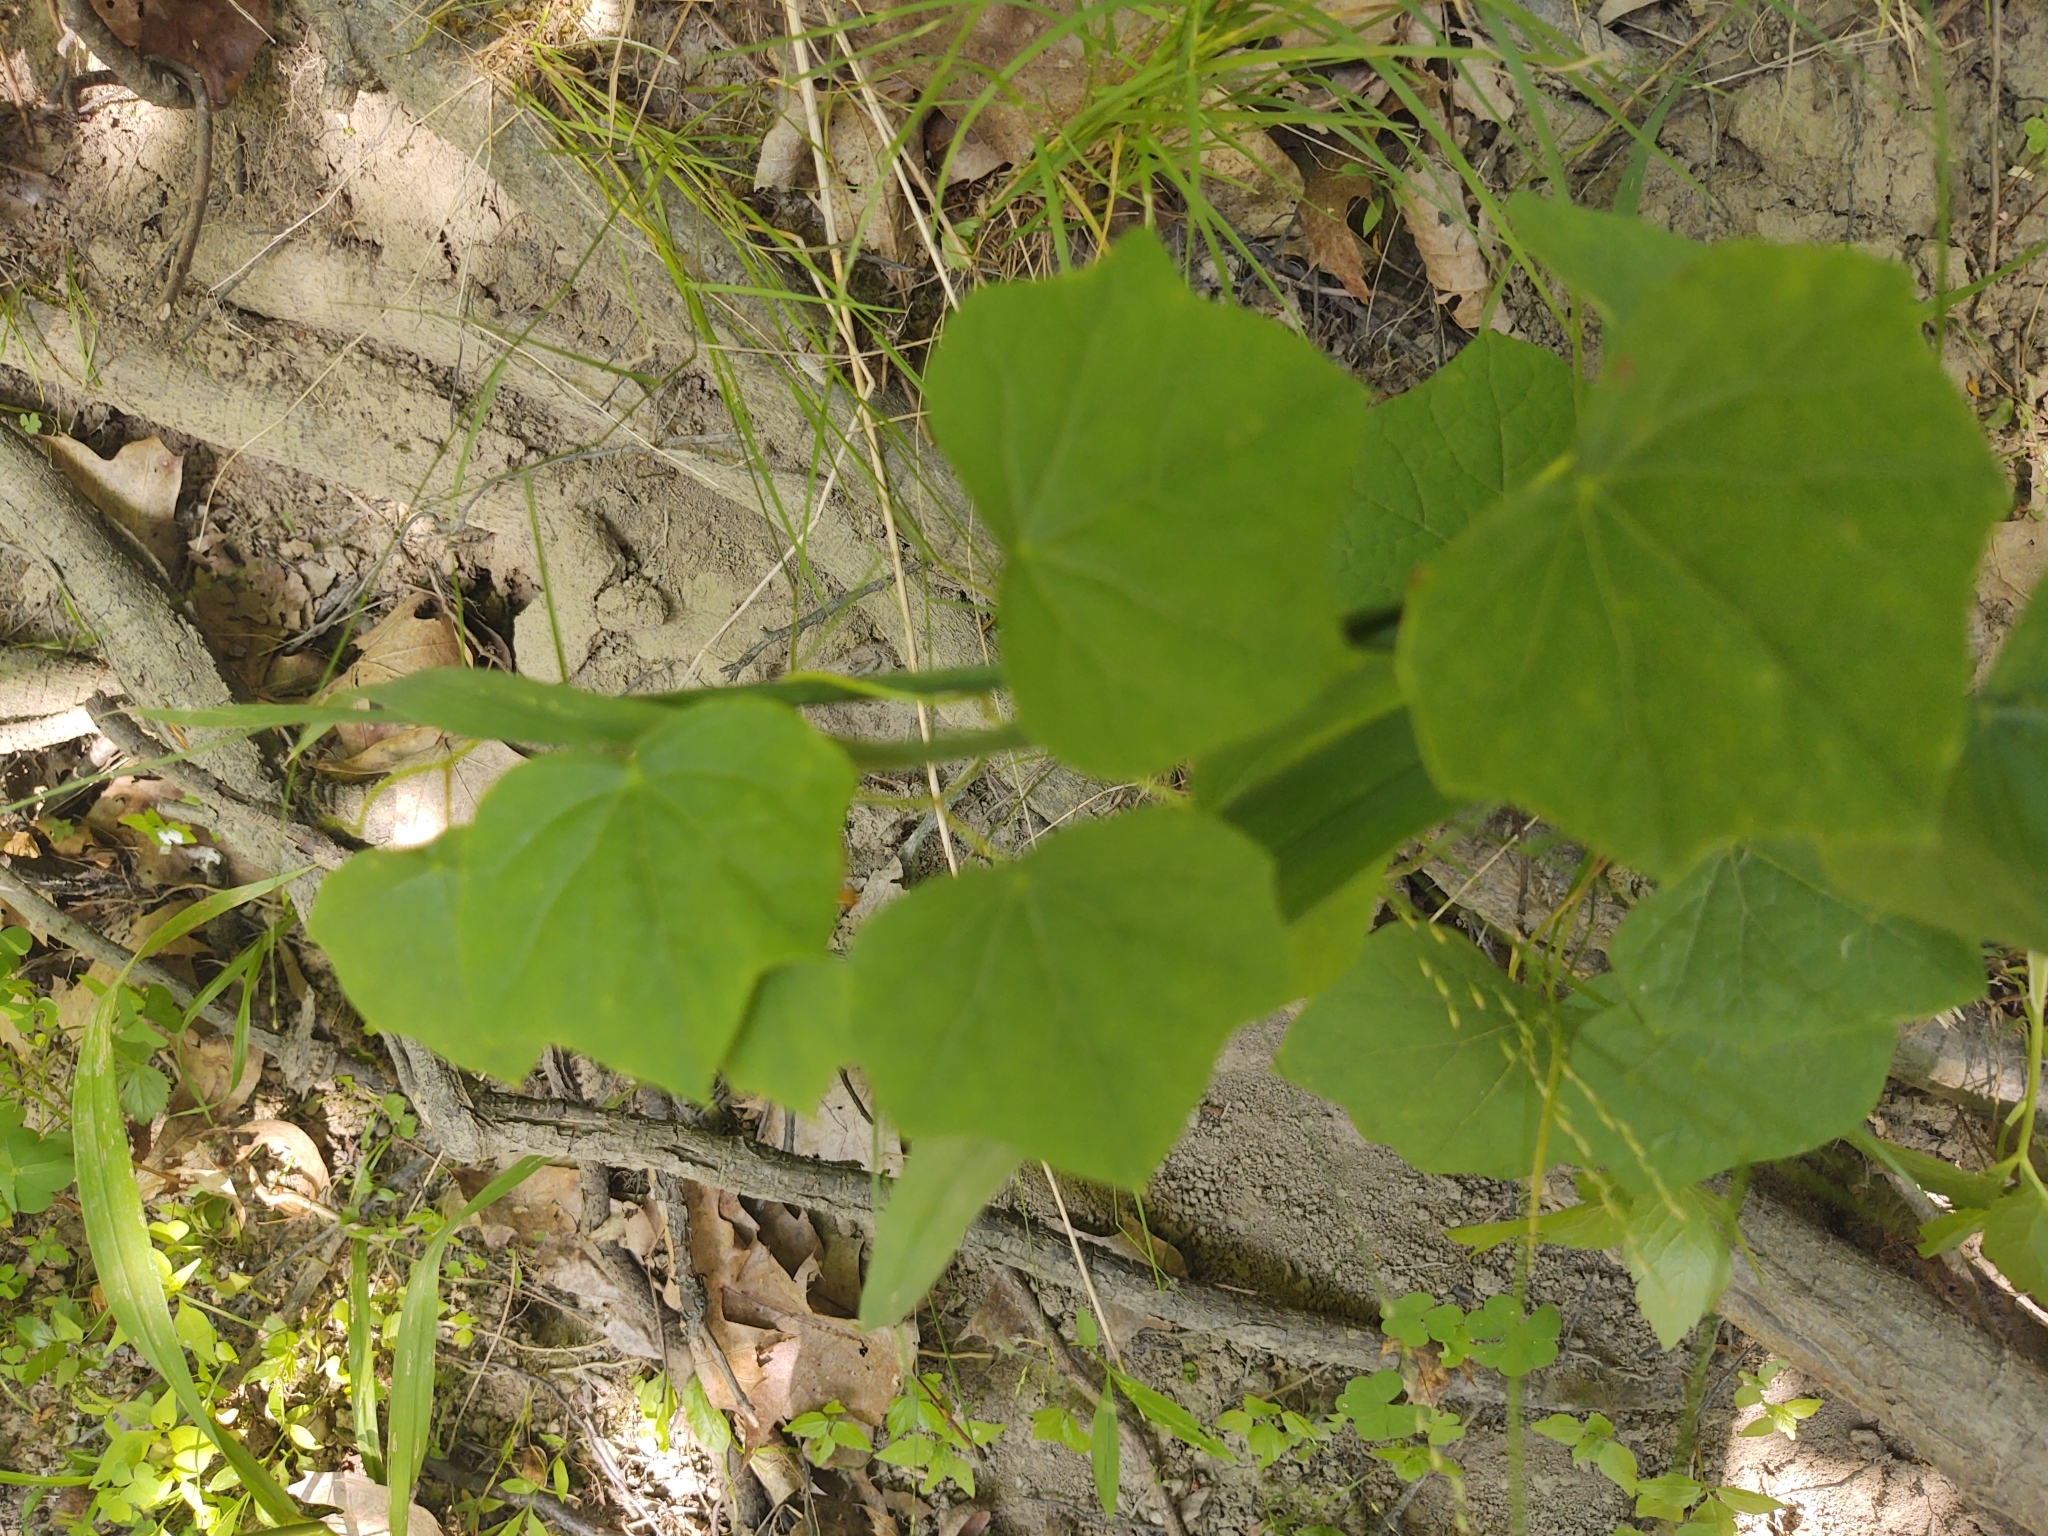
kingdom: Plantae
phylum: Tracheophyta
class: Magnoliopsida
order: Ranunculales
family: Menispermaceae
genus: Menispermum
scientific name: Menispermum canadense
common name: Moonseed
